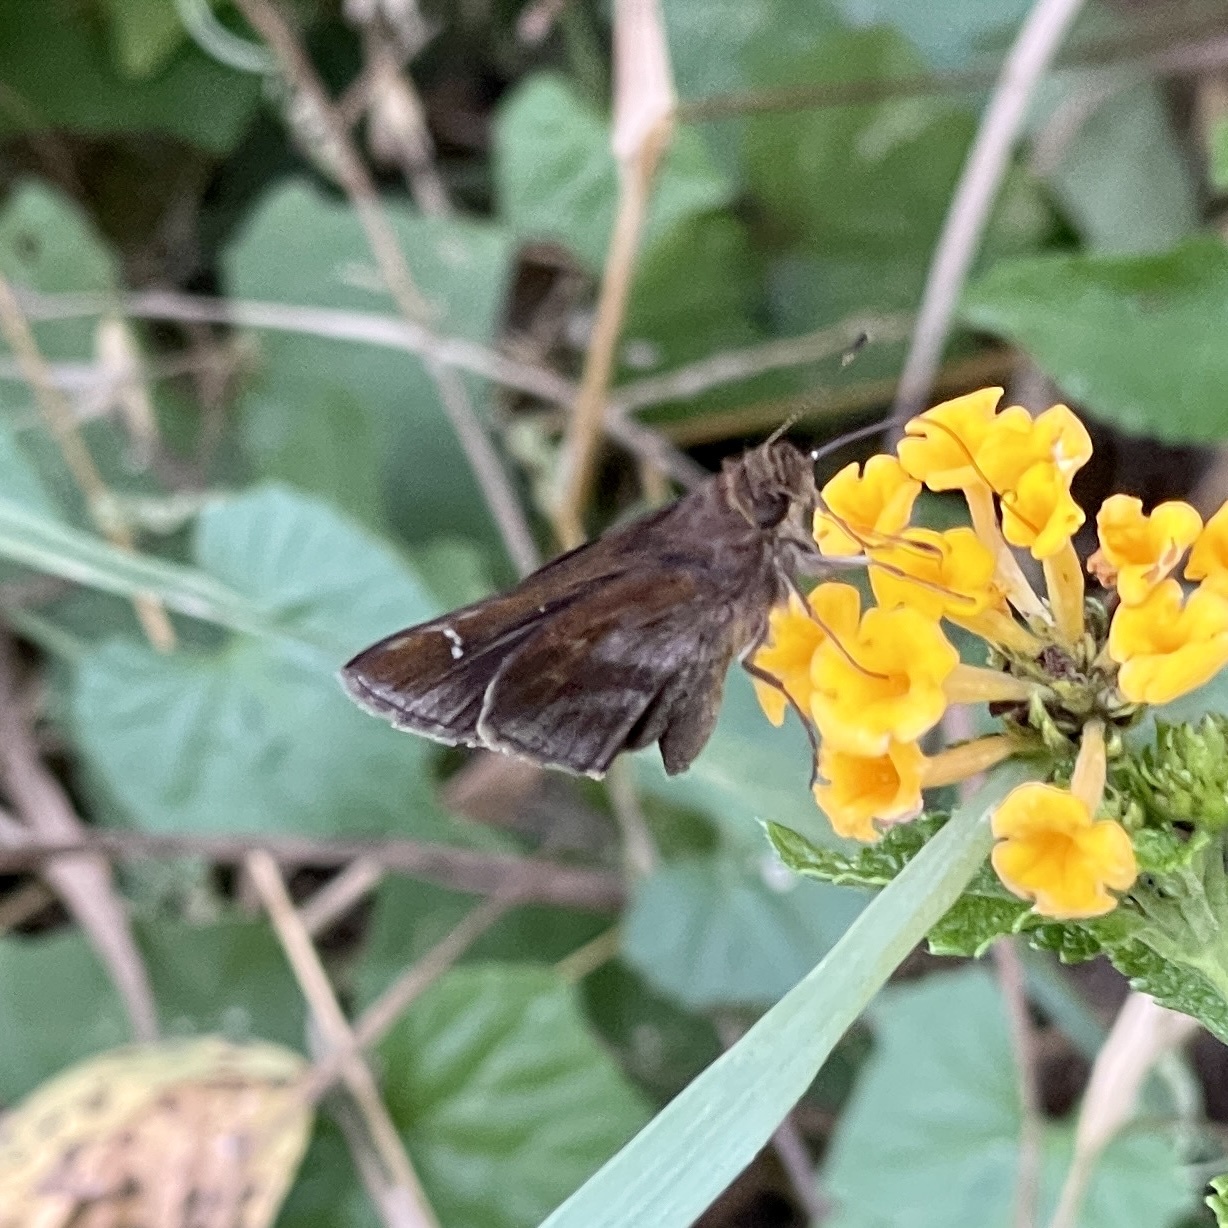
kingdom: Animalia
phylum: Arthropoda
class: Insecta
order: Lepidoptera
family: Hesperiidae
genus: Lerema
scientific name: Lerema accius
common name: Clouded skipper
